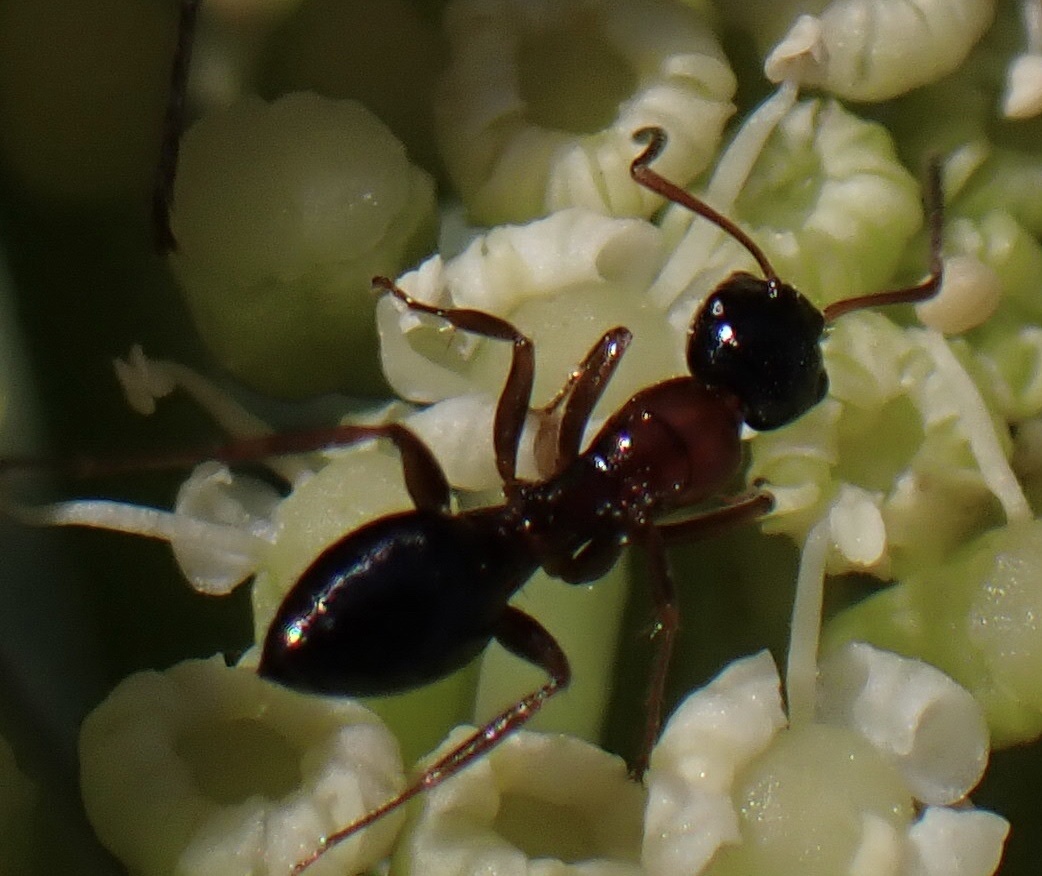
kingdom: Animalia
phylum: Arthropoda
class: Insecta
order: Hymenoptera
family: Formicidae
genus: Camponotus
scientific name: Camponotus dalmaticus
